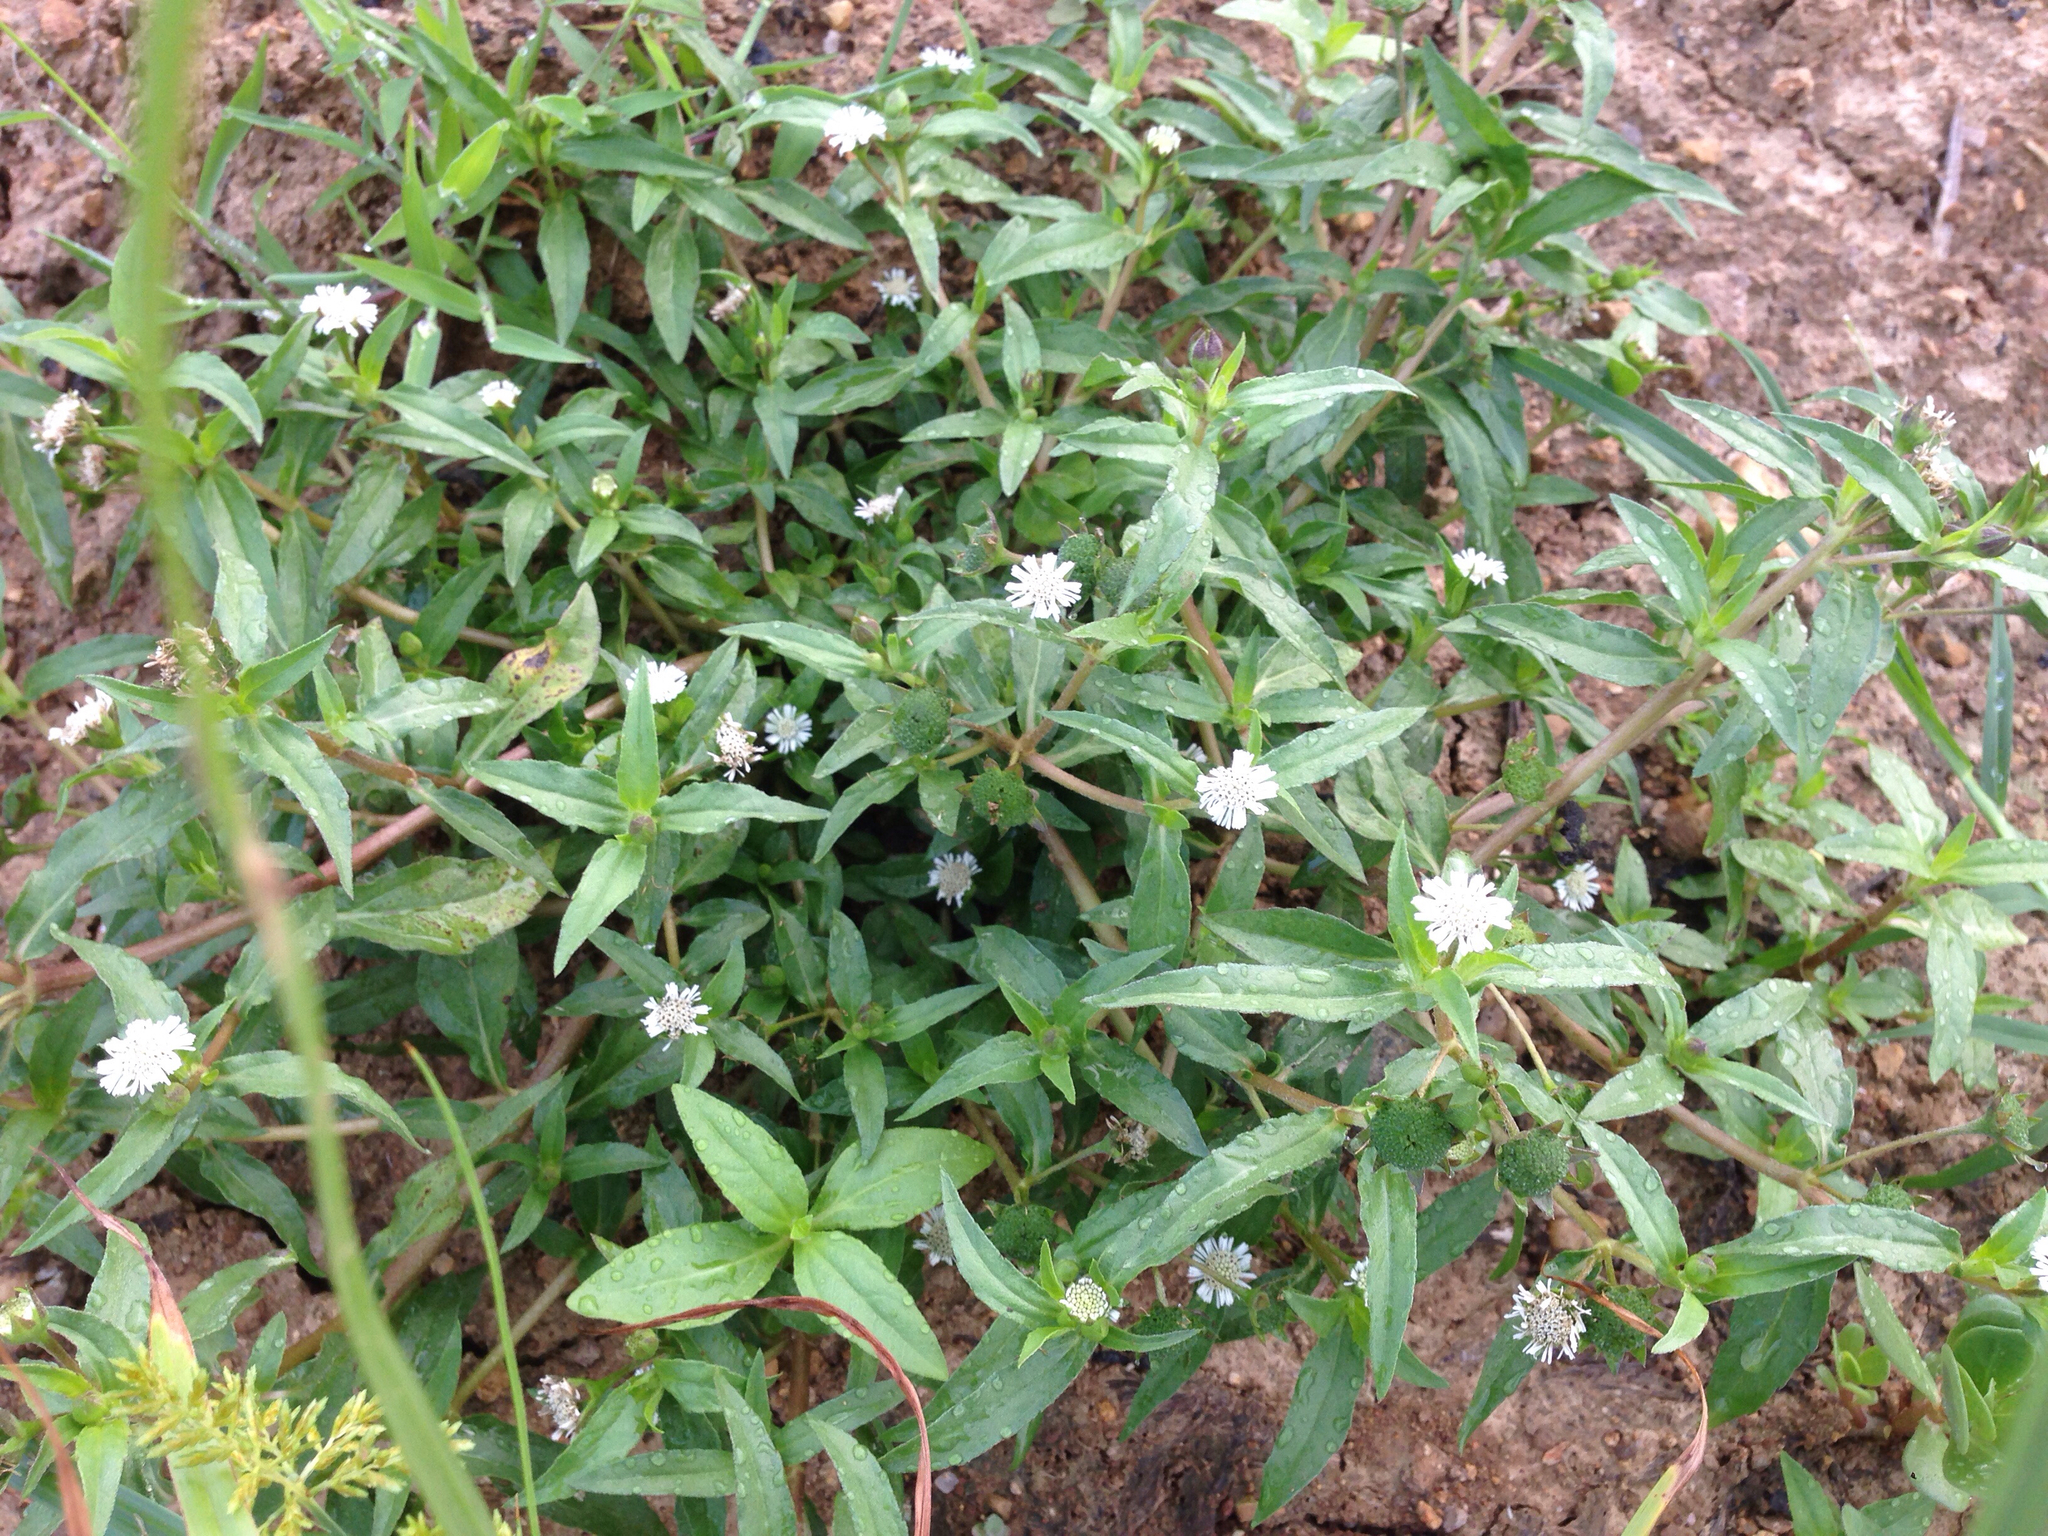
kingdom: Plantae
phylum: Tracheophyta
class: Magnoliopsida
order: Asterales
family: Asteraceae
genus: Eclipta
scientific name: Eclipta prostrata
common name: False daisy
